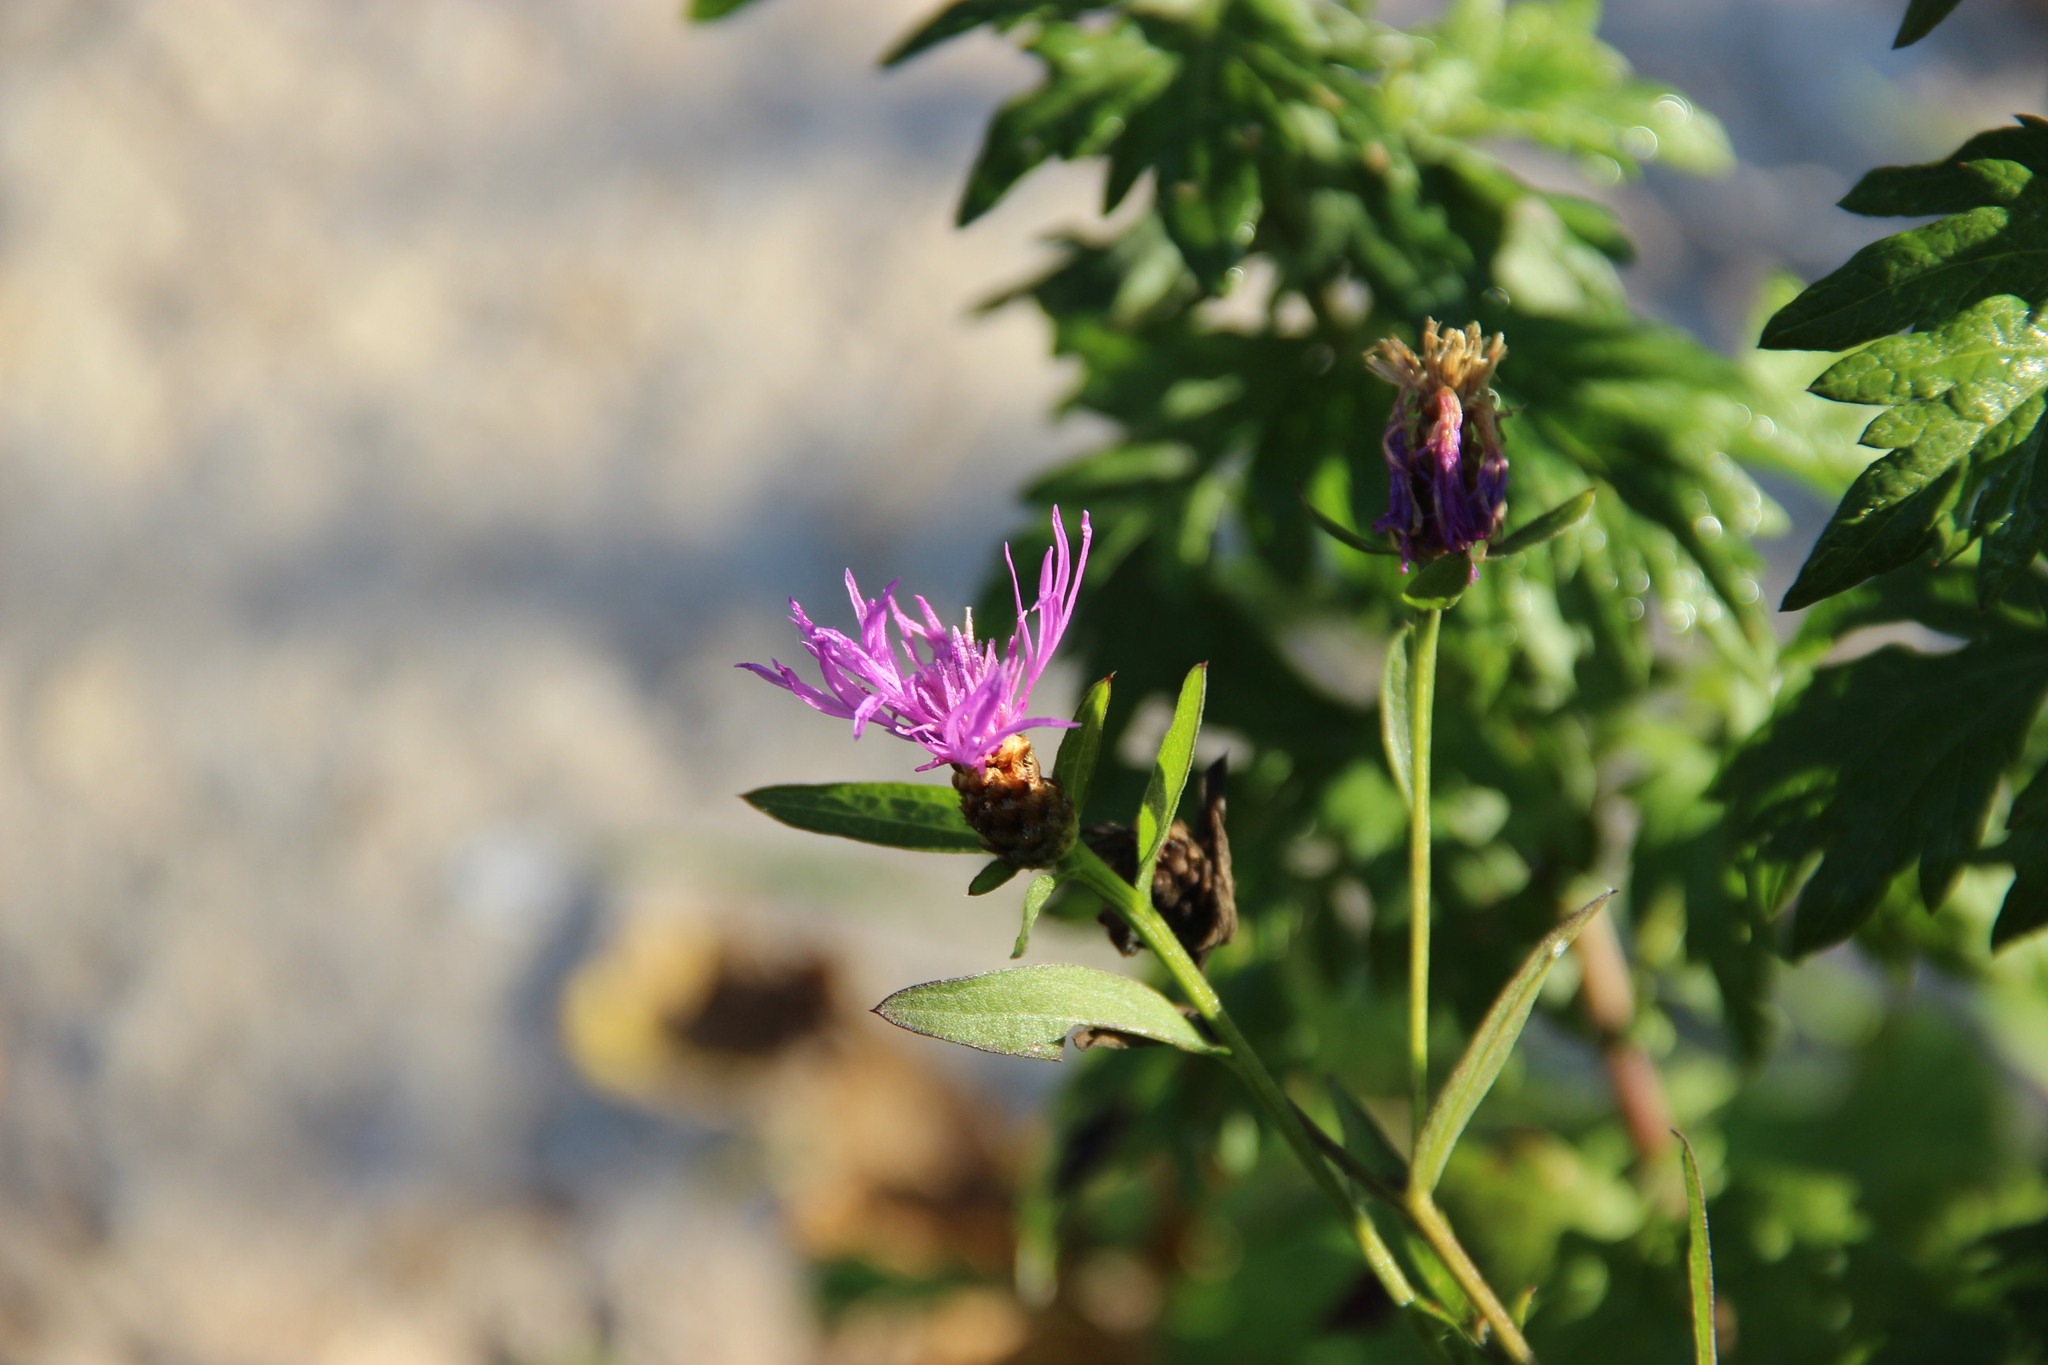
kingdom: Plantae
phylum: Tracheophyta
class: Magnoliopsida
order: Asterales
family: Asteraceae
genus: Centaurea
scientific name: Centaurea jacea
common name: Brown knapweed
